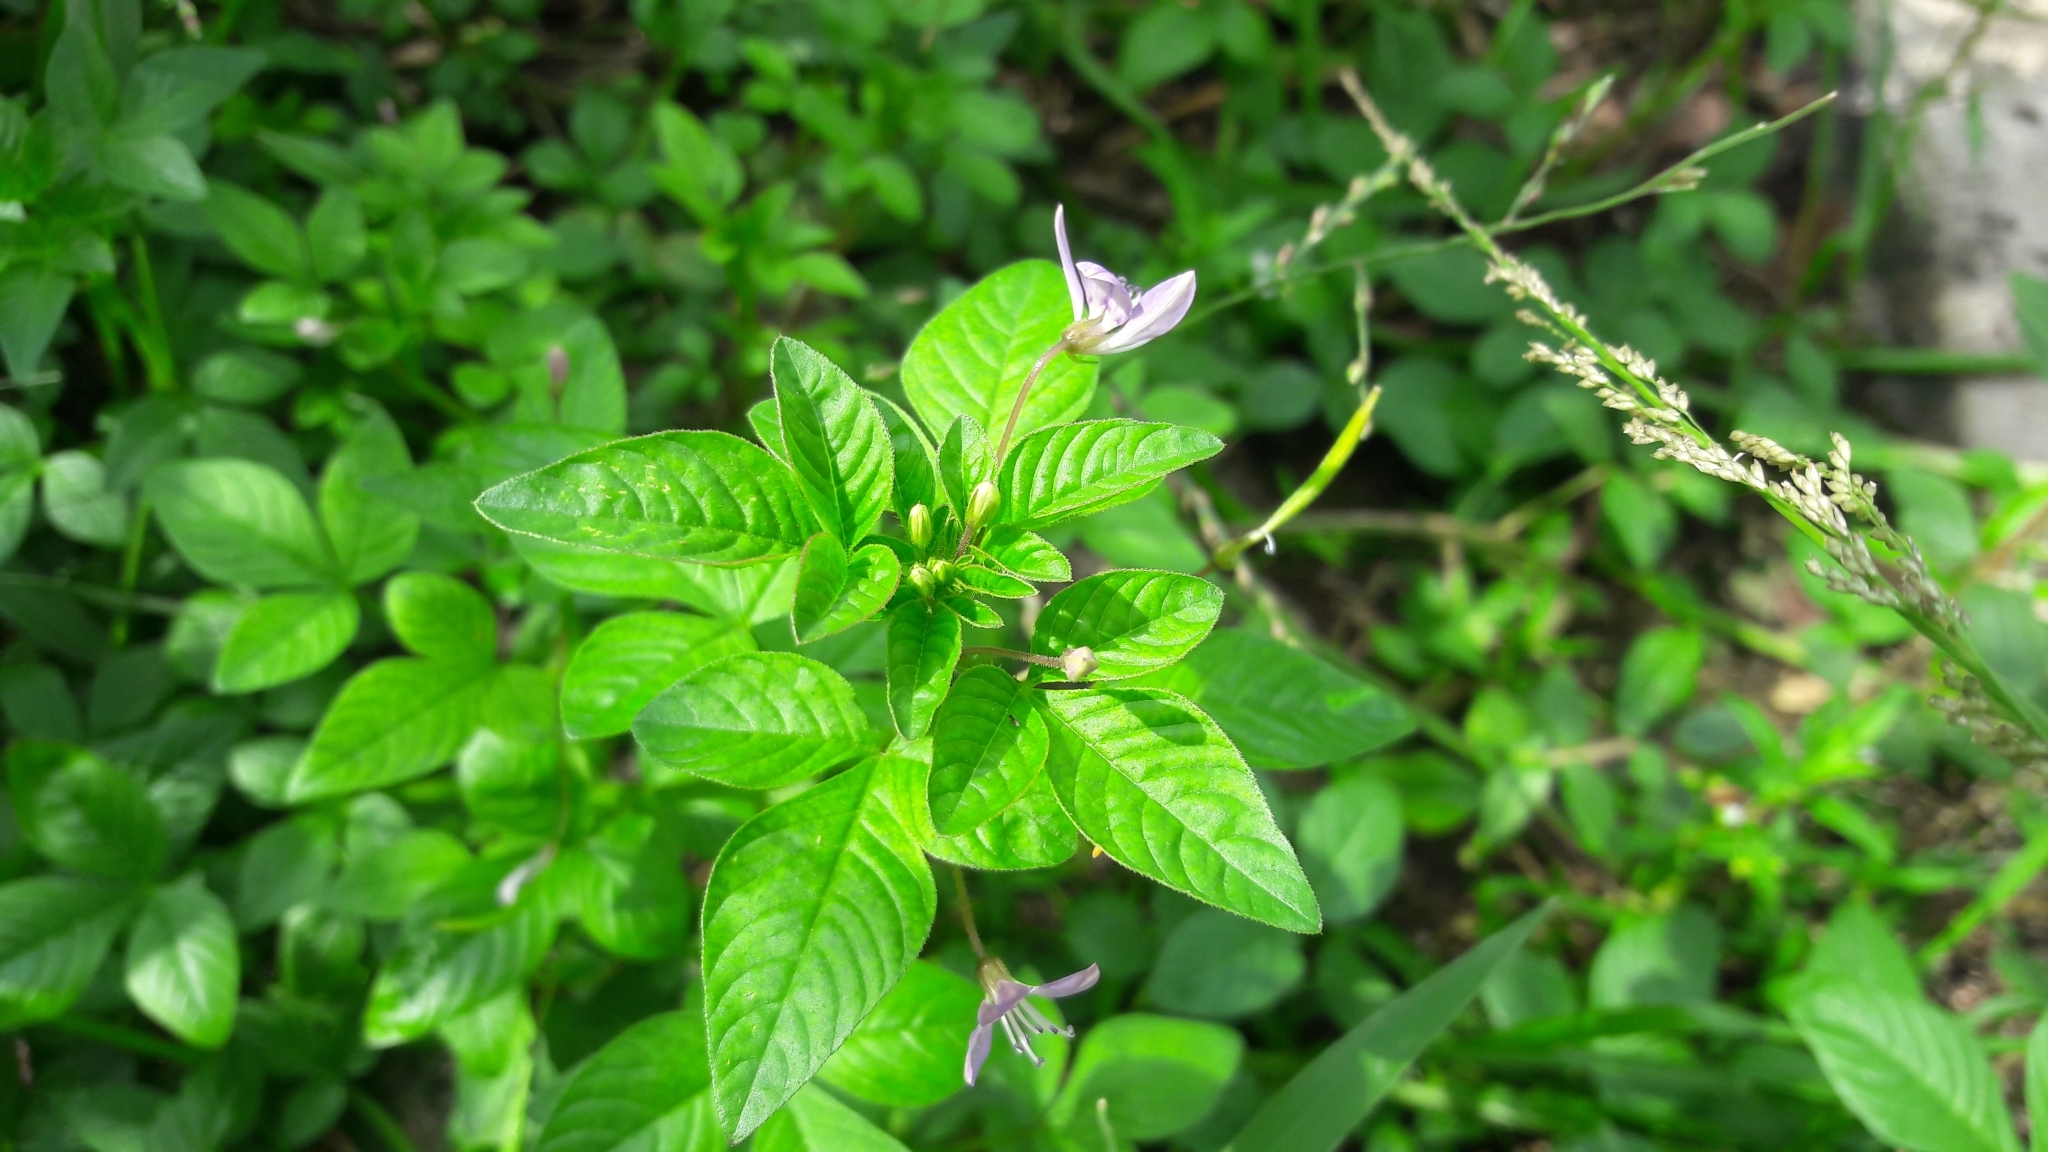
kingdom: Plantae
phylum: Tracheophyta
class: Magnoliopsida
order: Brassicales
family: Cleomaceae
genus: Sieruela
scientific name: Sieruela rutidosperma
